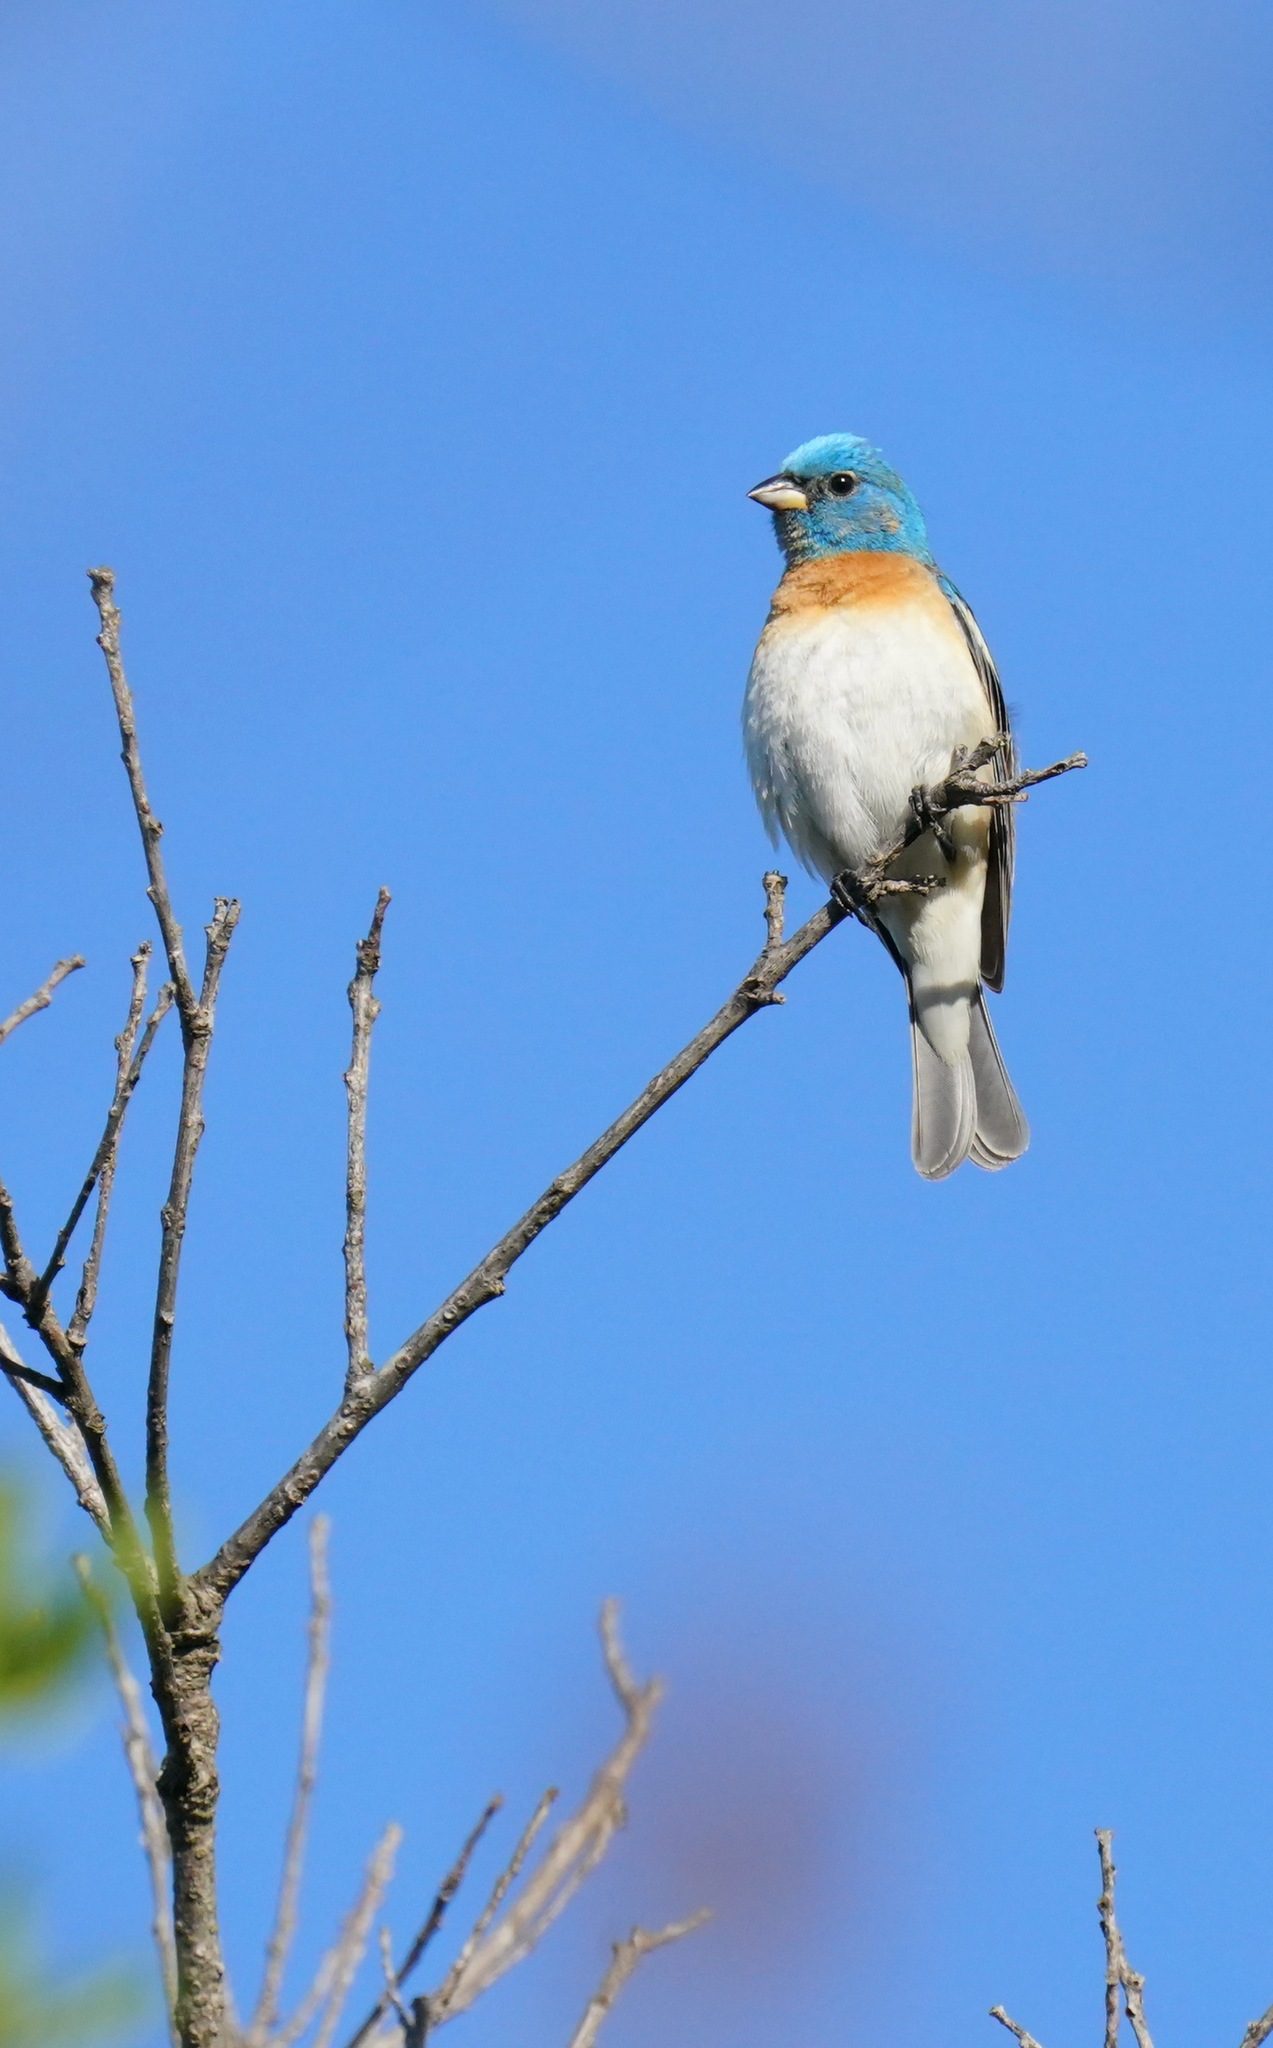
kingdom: Animalia
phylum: Chordata
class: Aves
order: Passeriformes
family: Cardinalidae
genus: Passerina
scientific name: Passerina amoena
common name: Lazuli bunting
